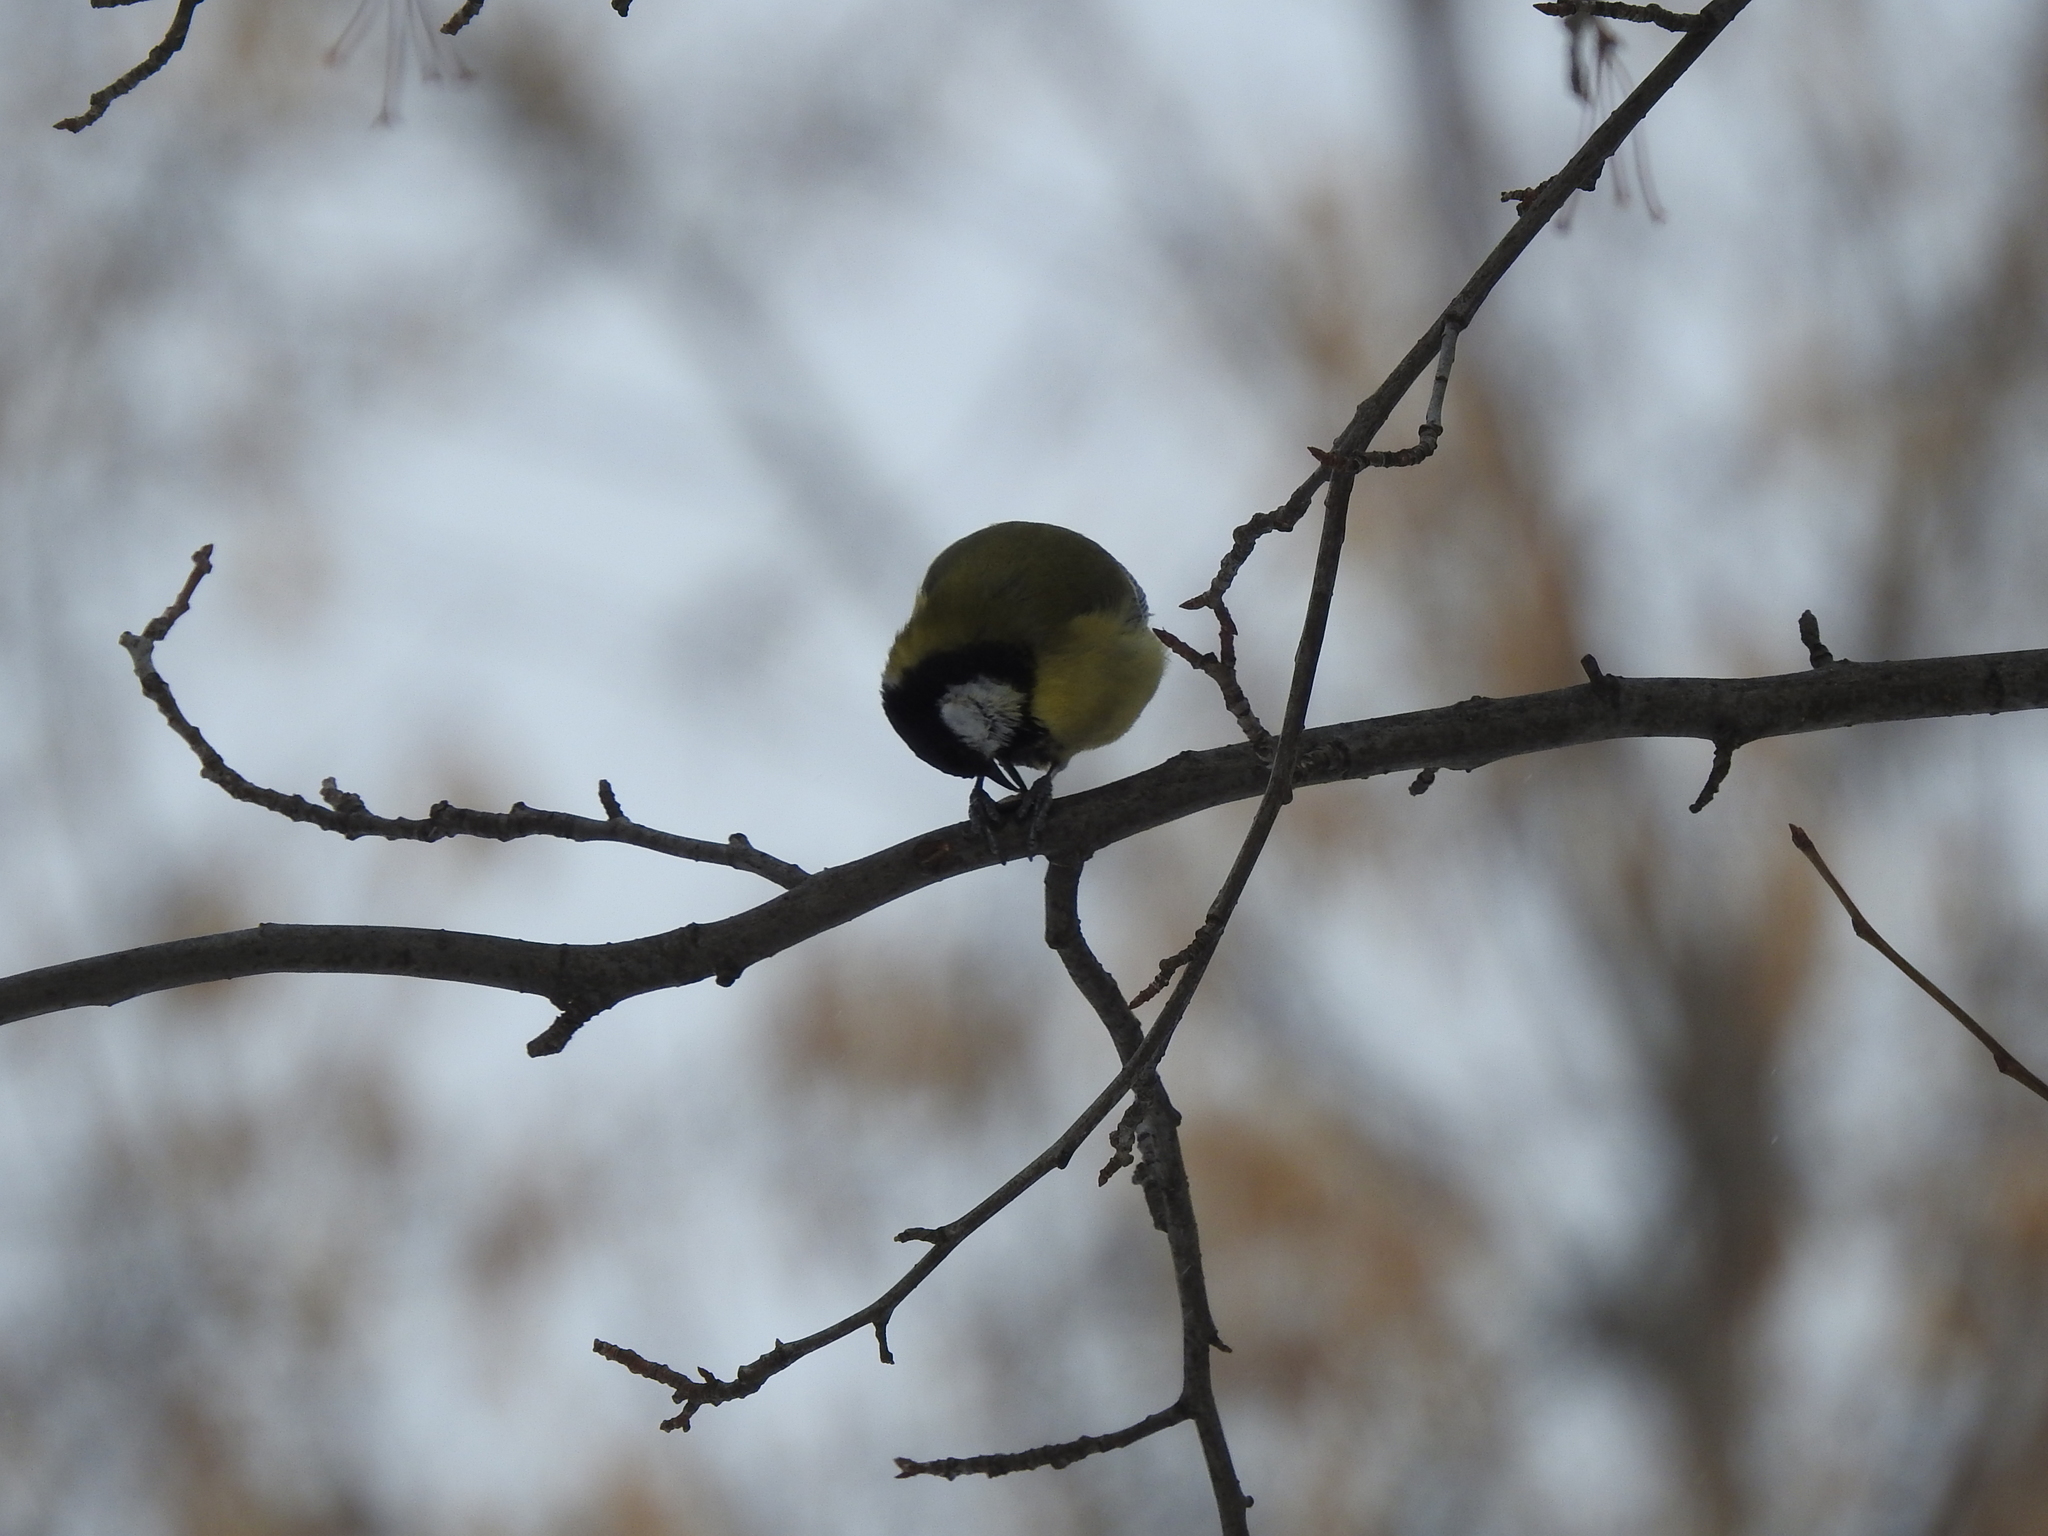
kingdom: Animalia
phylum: Chordata
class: Aves
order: Passeriformes
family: Paridae
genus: Parus
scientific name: Parus major
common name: Great tit
